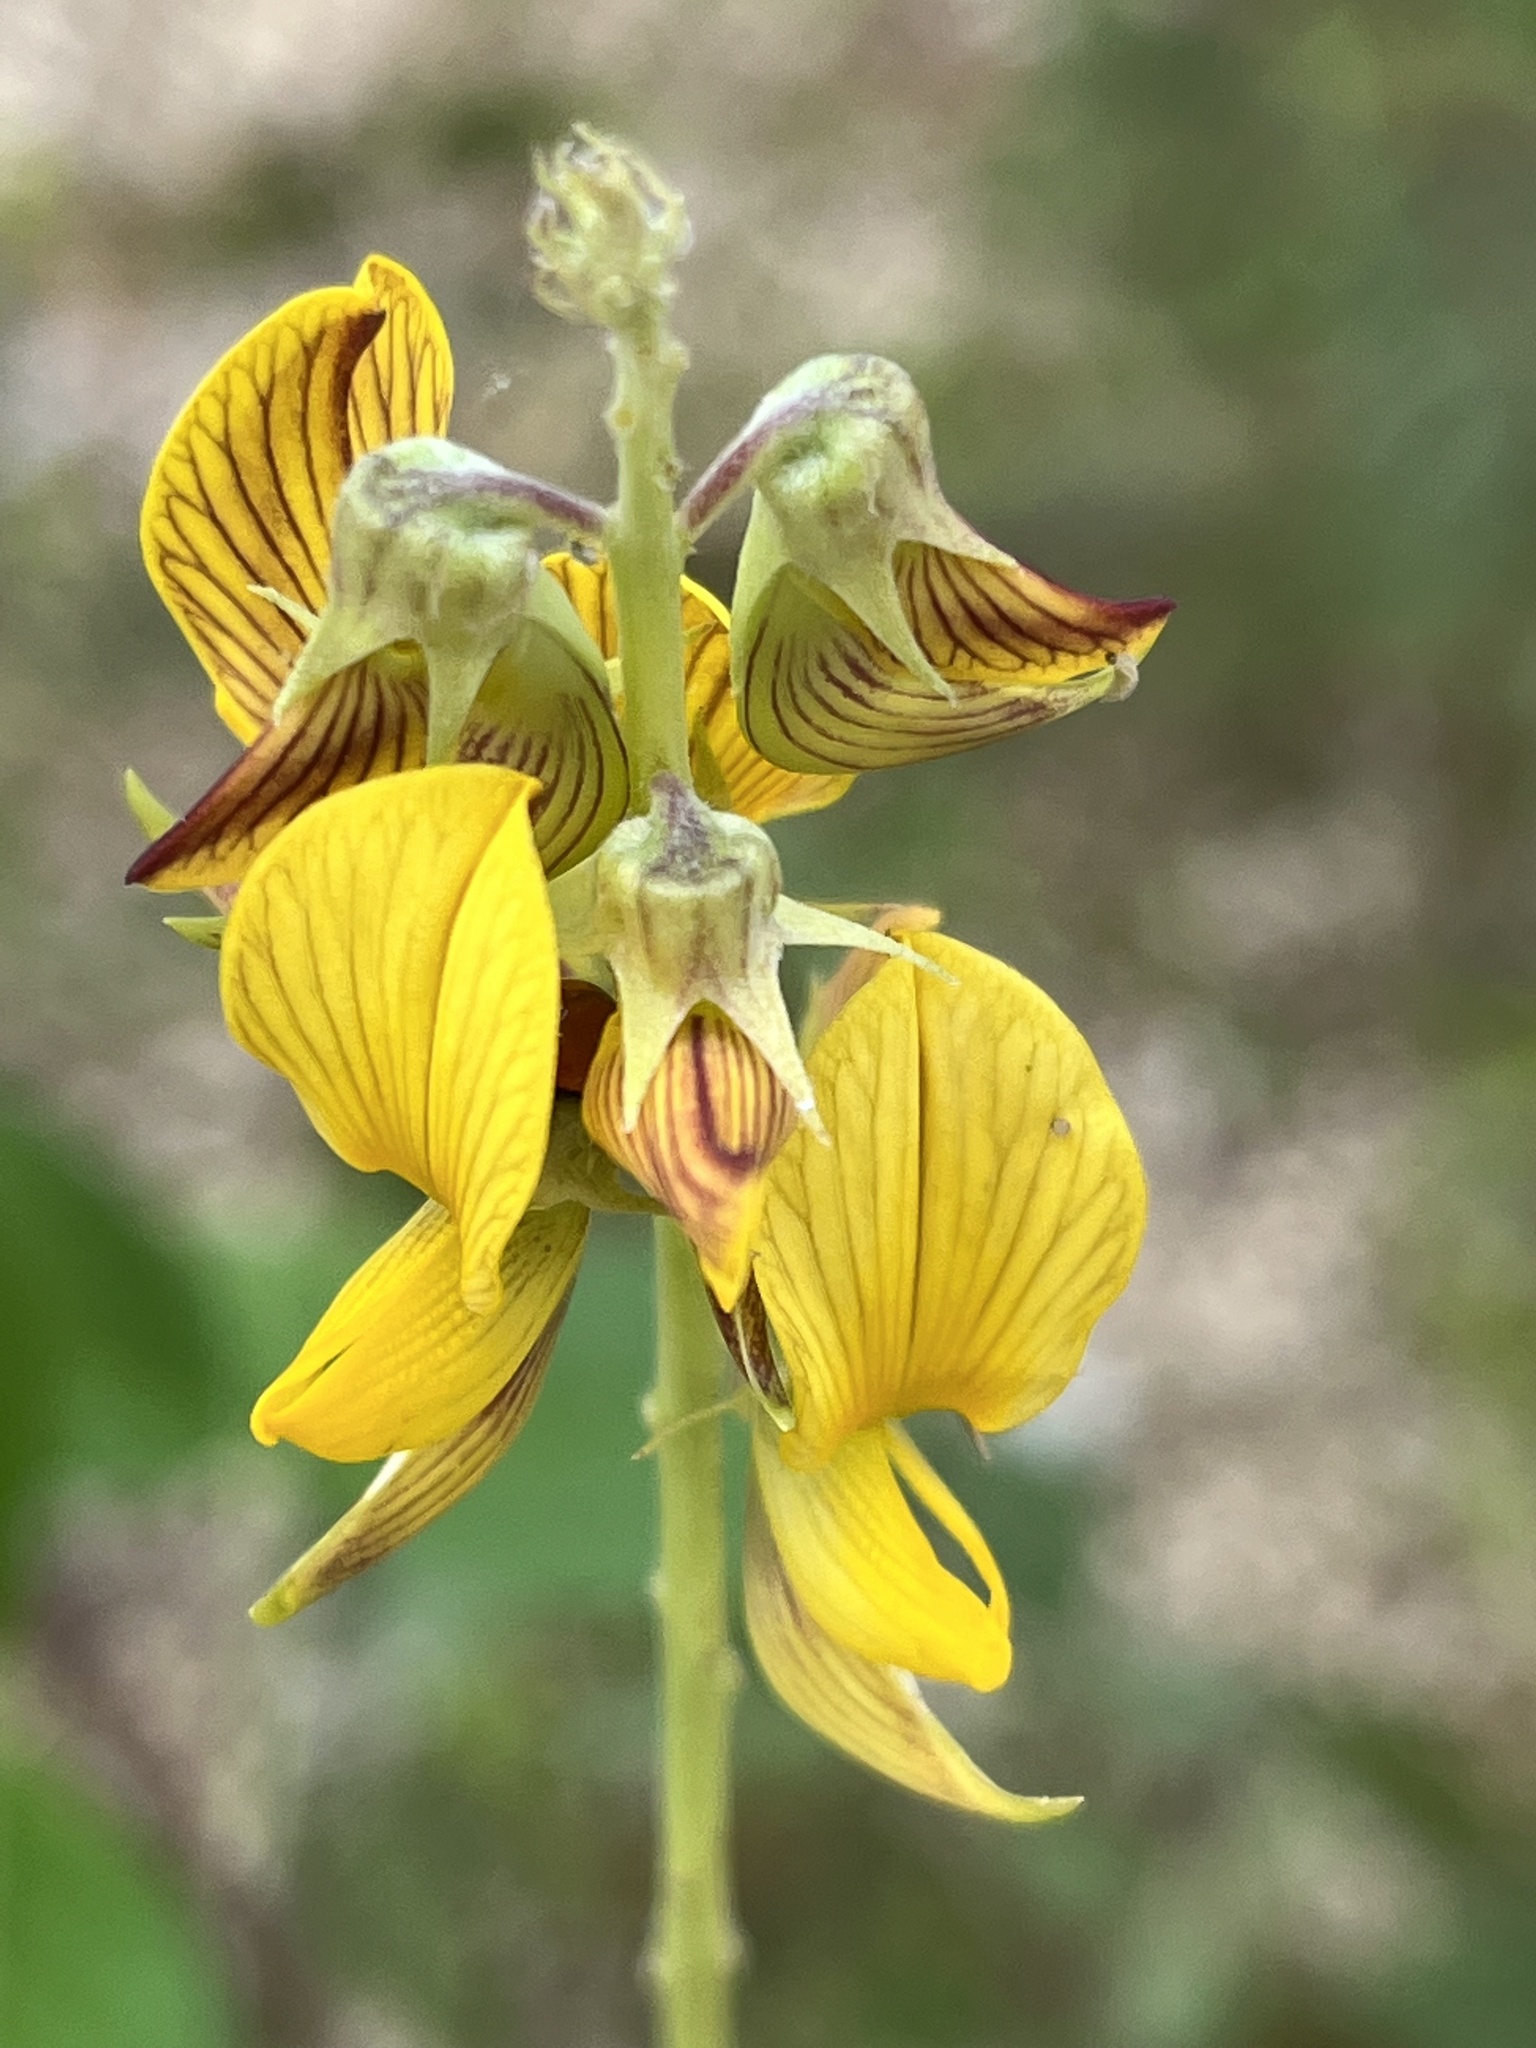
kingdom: Plantae
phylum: Tracheophyta
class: Magnoliopsida
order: Fabales
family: Fabaceae
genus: Crotalaria
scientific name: Crotalaria pallida
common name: Smooth rattlebox
